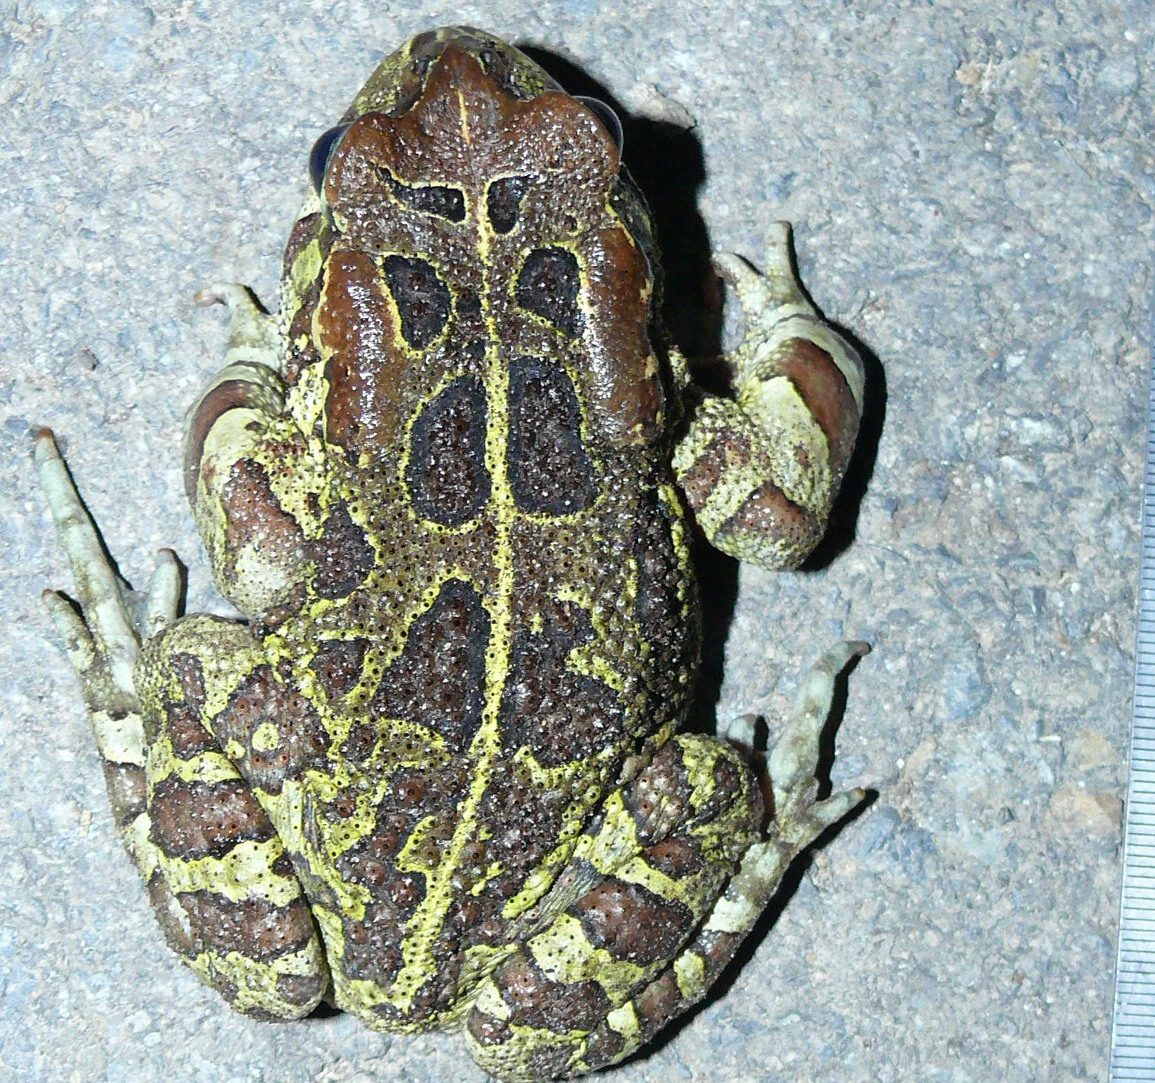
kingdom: Animalia
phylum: Chordata
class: Amphibia
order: Anura
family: Bufonidae
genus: Sclerophrys
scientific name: Sclerophrys pantherina
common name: Panther toad
